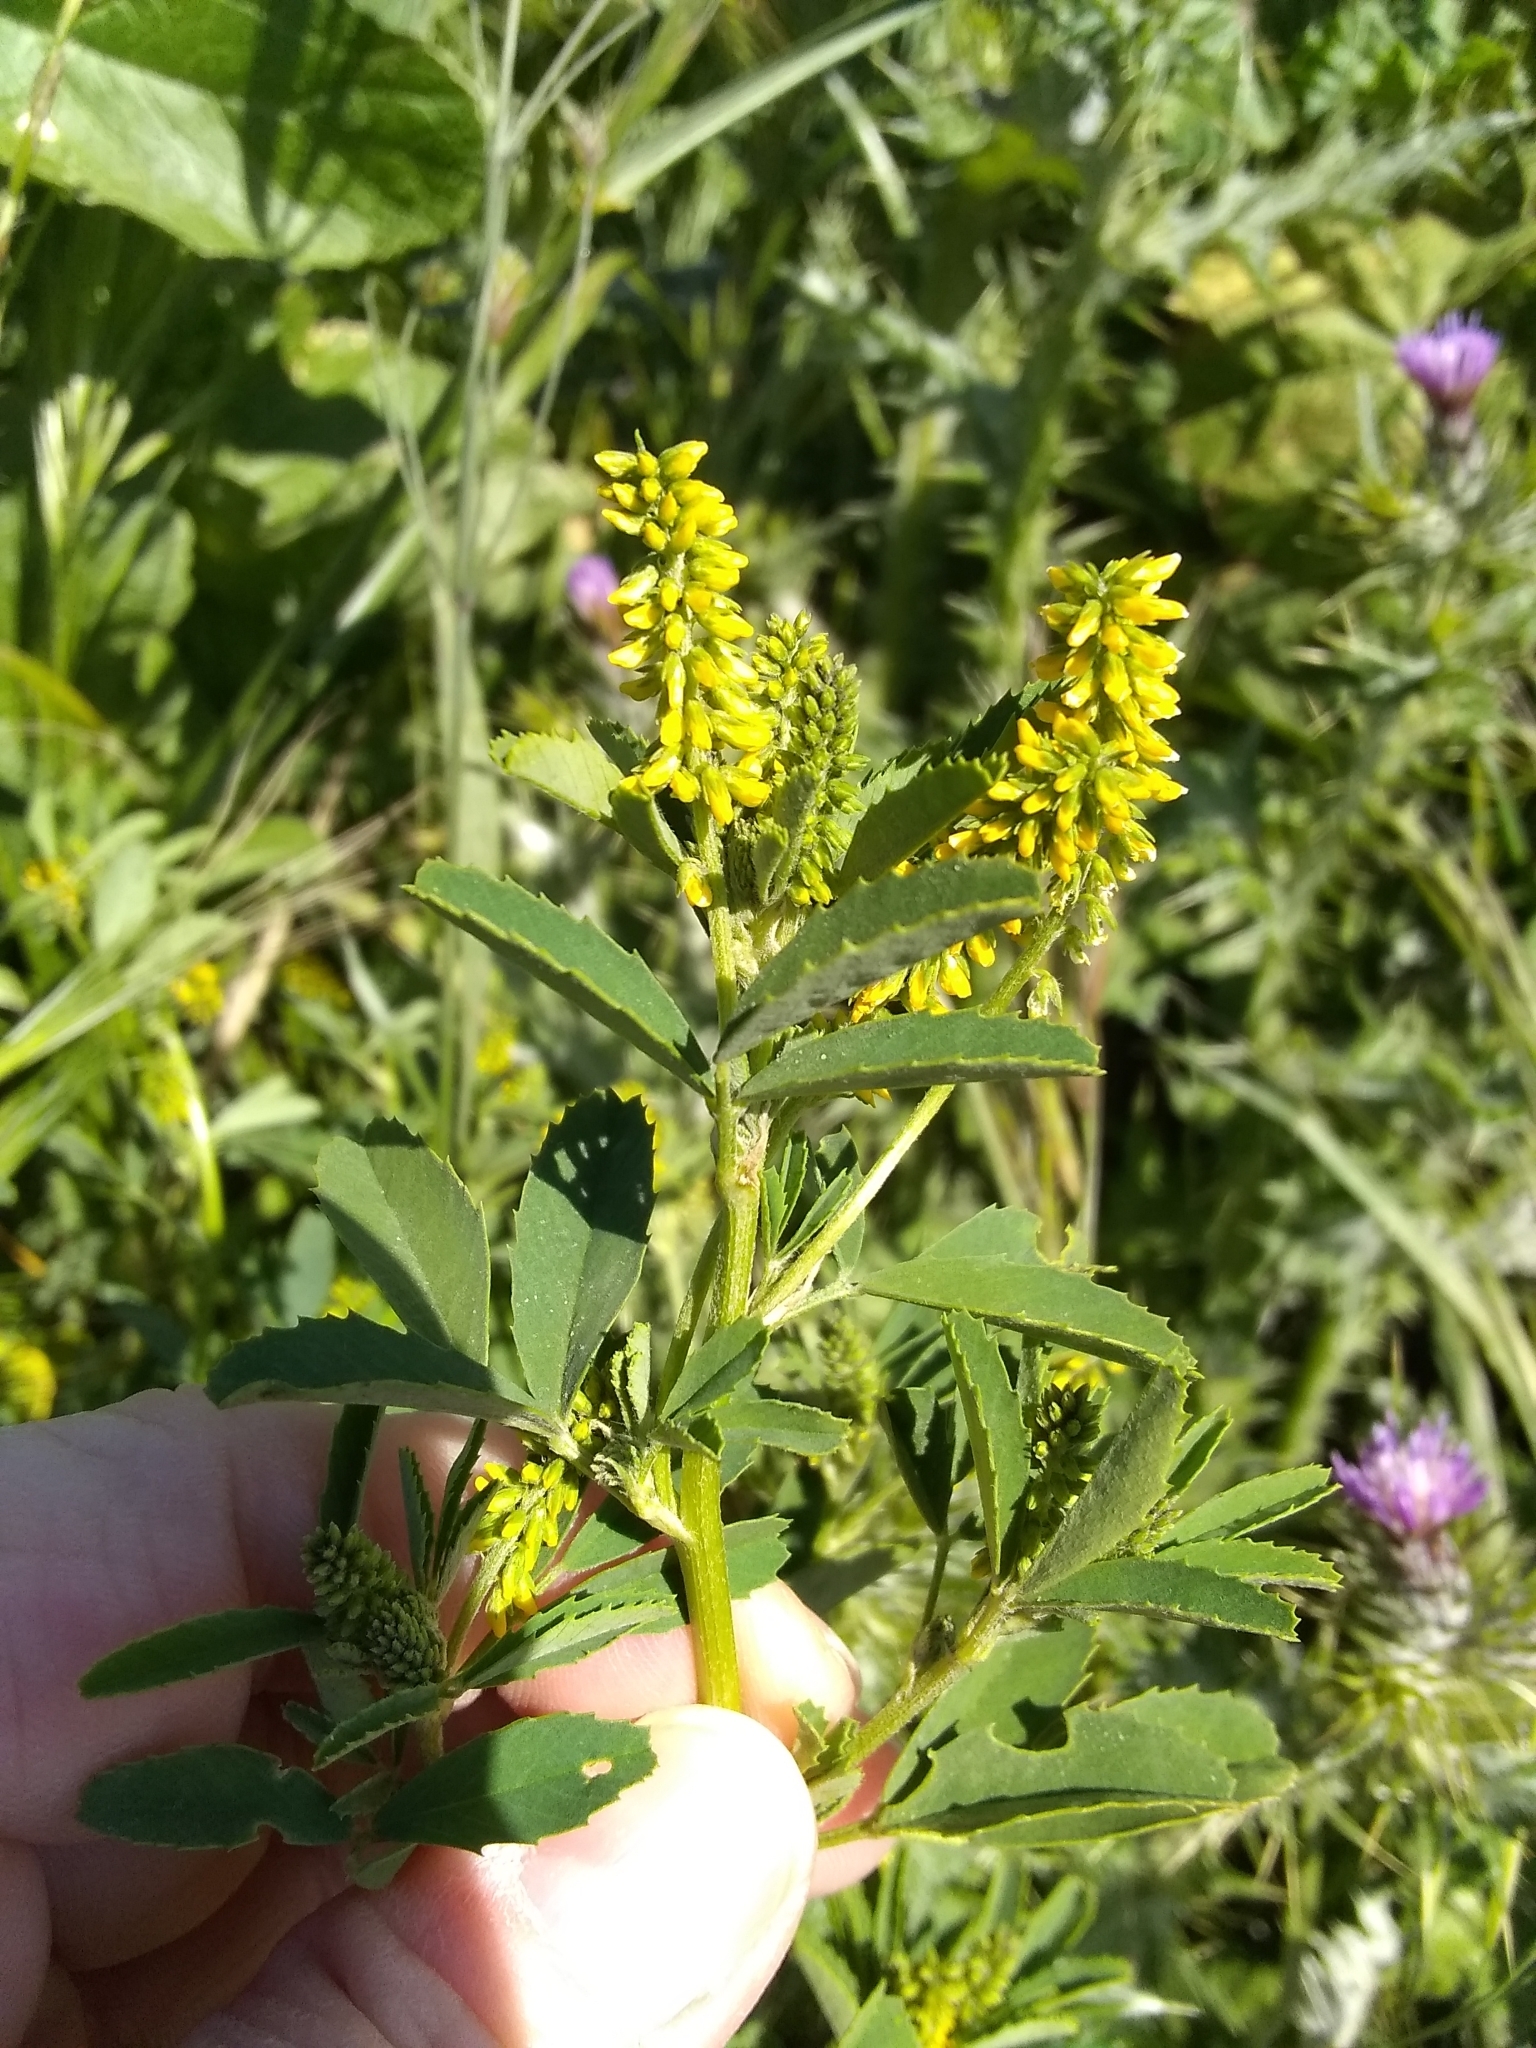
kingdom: Plantae
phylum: Tracheophyta
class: Magnoliopsida
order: Fabales
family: Fabaceae
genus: Melilotus
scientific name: Melilotus indicus
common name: Small melilot
